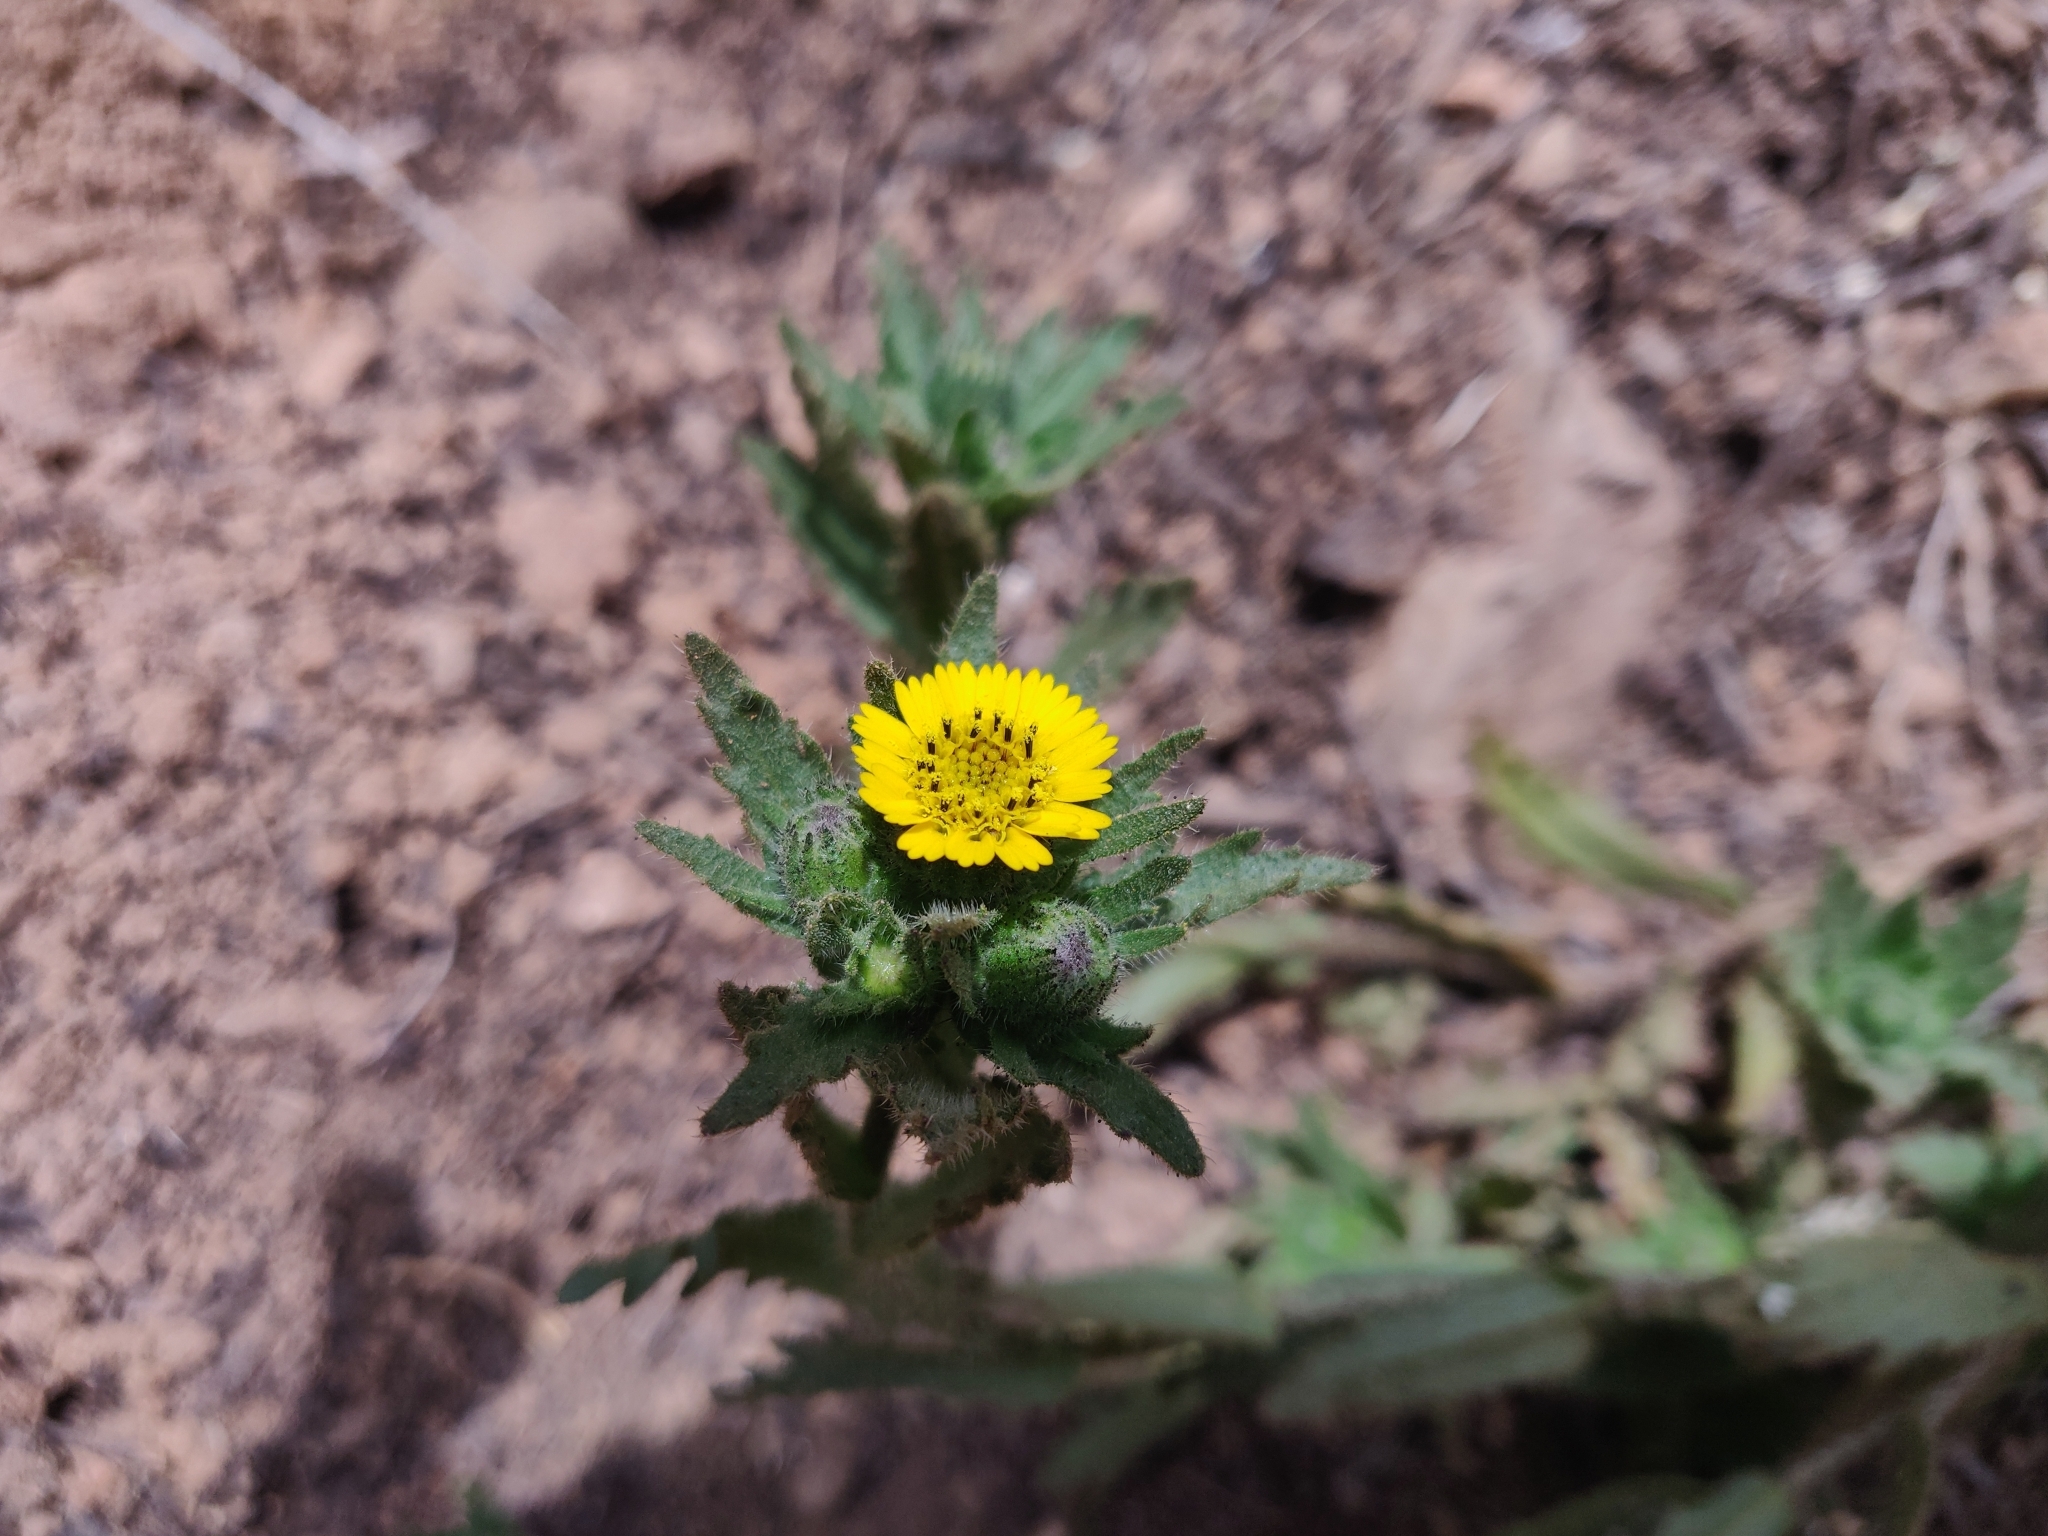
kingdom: Plantae
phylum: Tracheophyta
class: Magnoliopsida
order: Asterales
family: Asteraceae
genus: Layia
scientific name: Layia hieracioides
